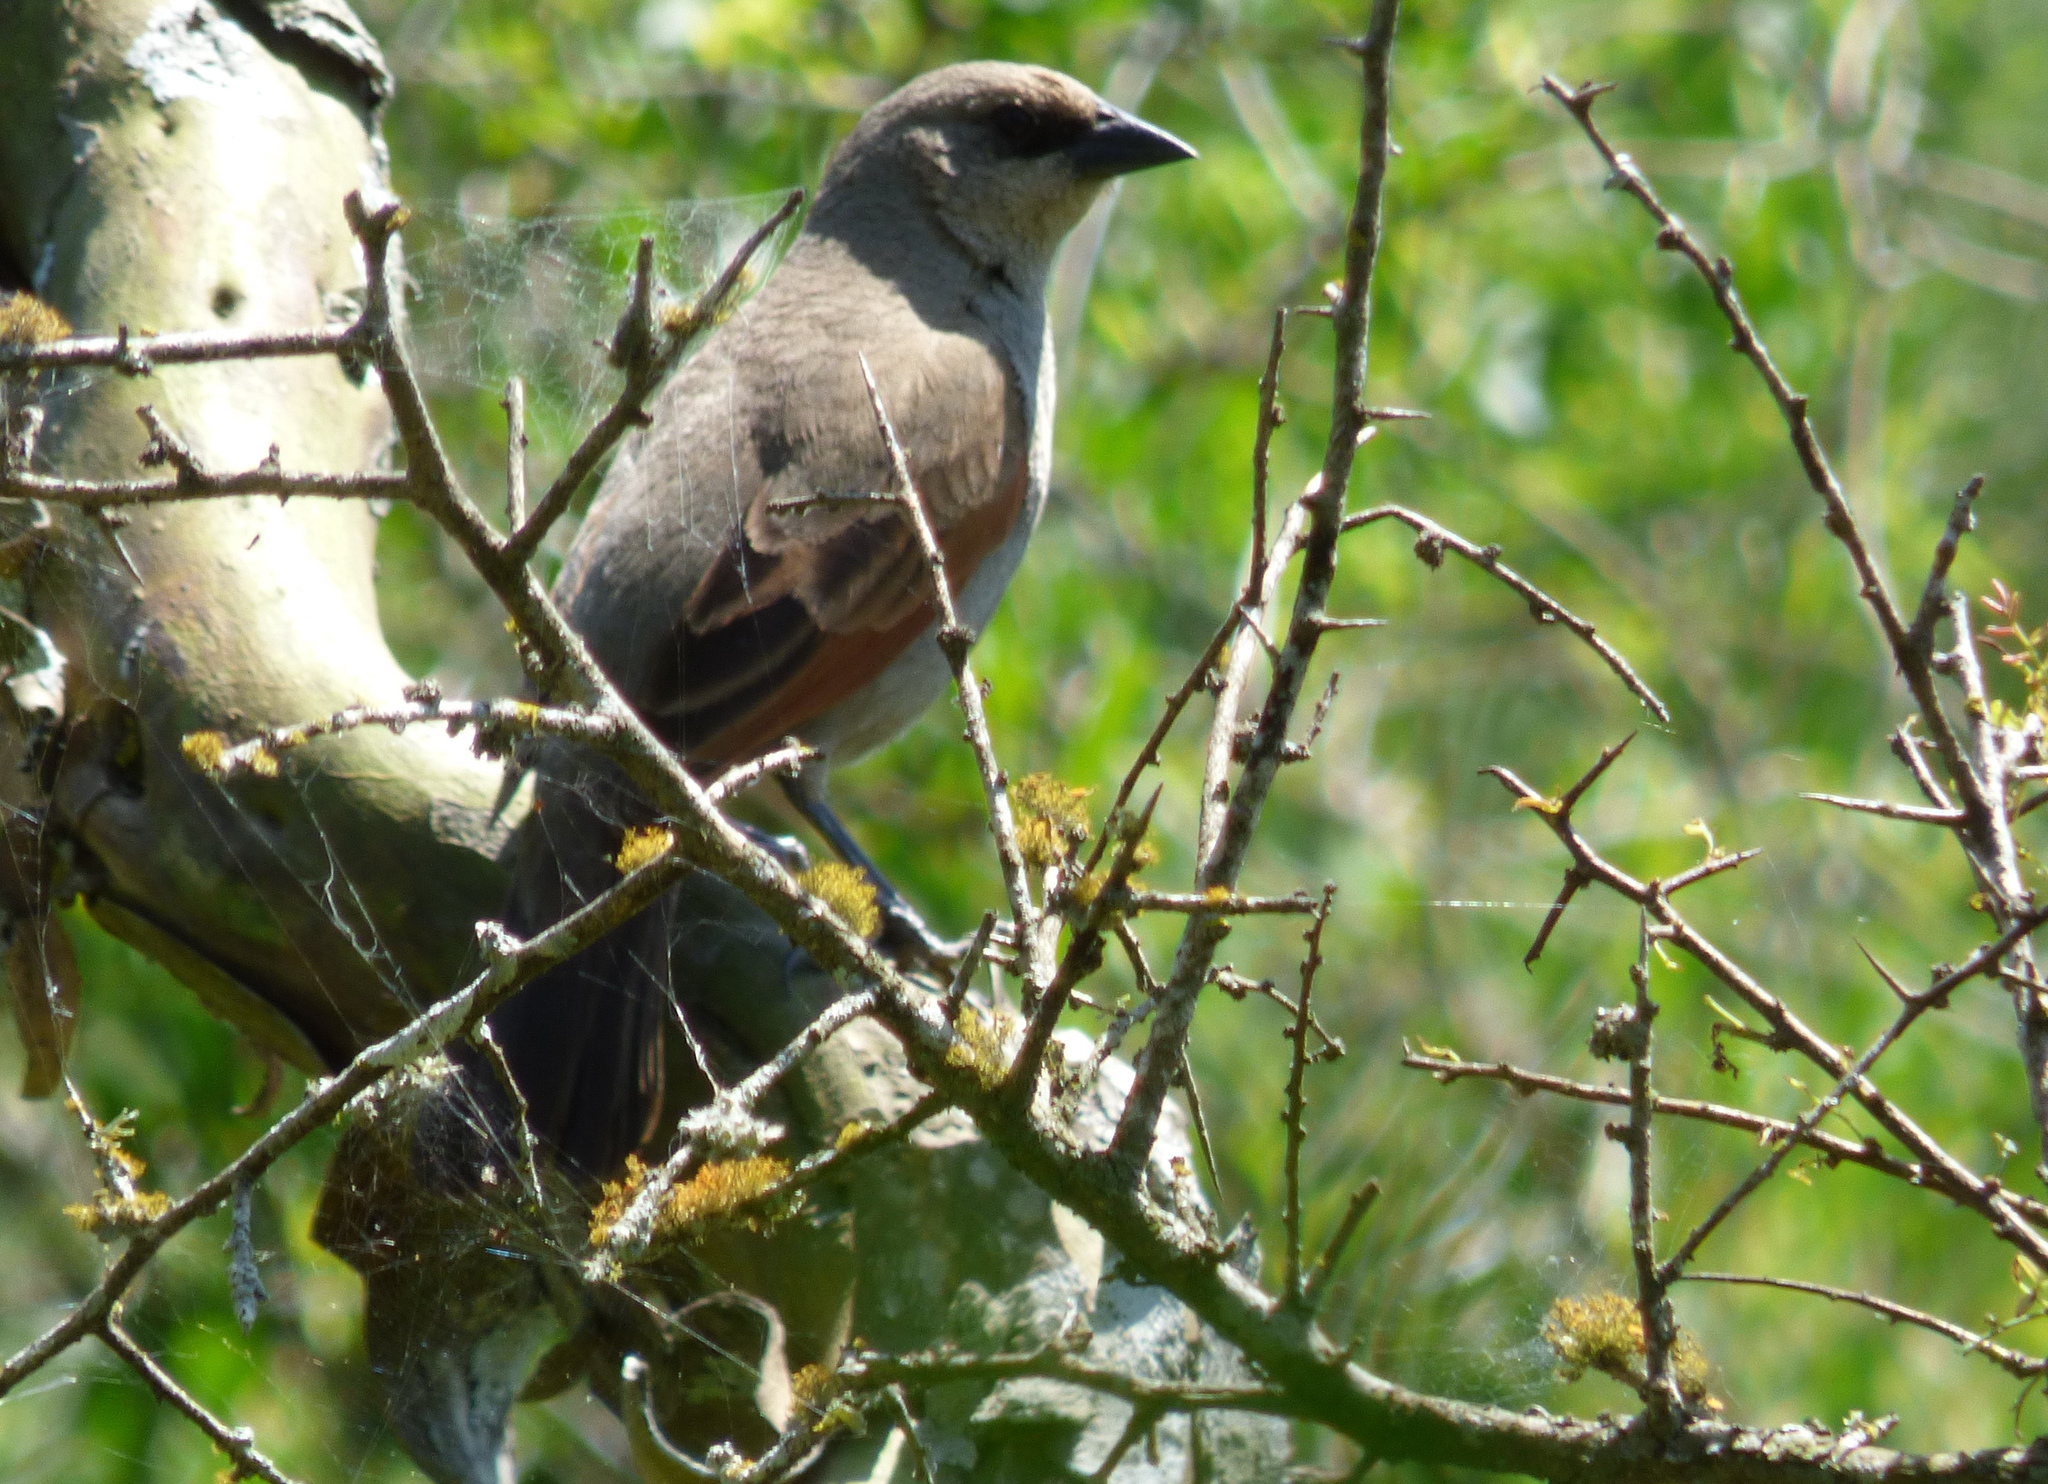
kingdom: Animalia
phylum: Chordata
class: Aves
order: Passeriformes
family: Icteridae
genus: Agelaioides
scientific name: Agelaioides badius
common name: Baywing
